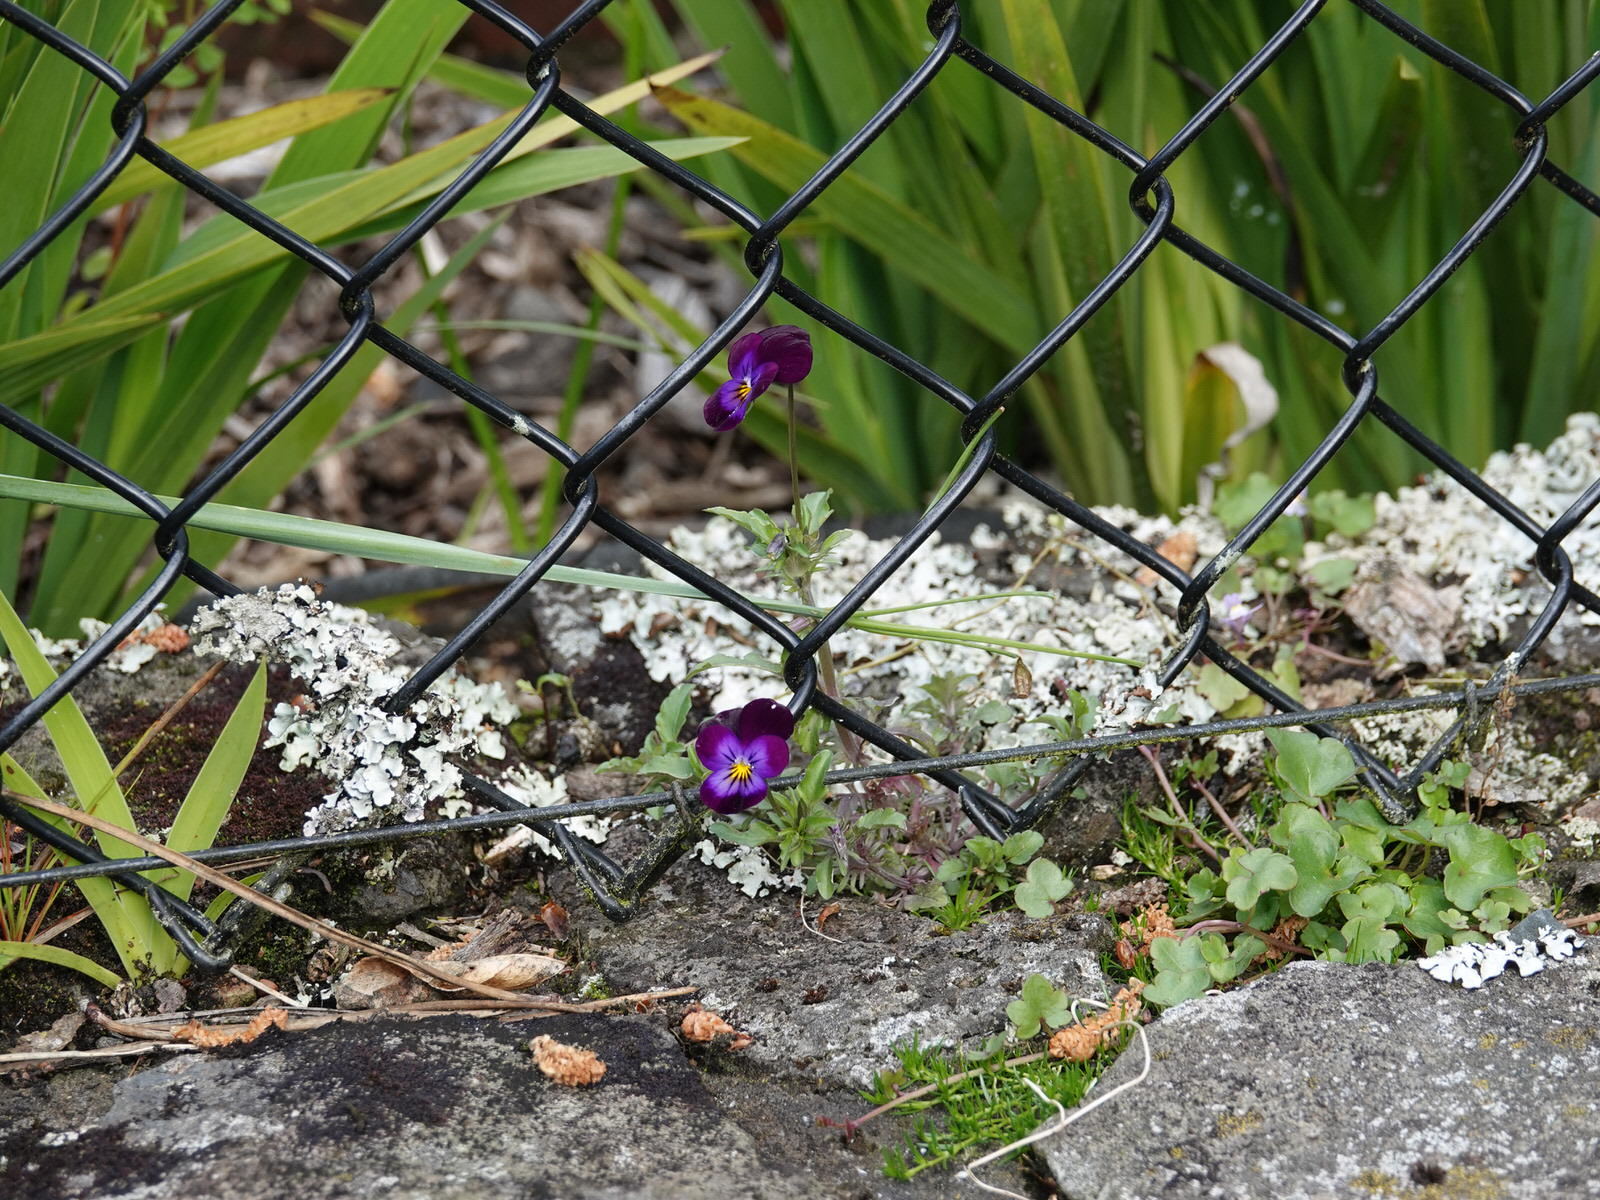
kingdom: Plantae
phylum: Tracheophyta
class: Magnoliopsida
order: Malpighiales
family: Violaceae
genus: Viola
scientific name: Viola wittrockiana
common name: Garden pansy
